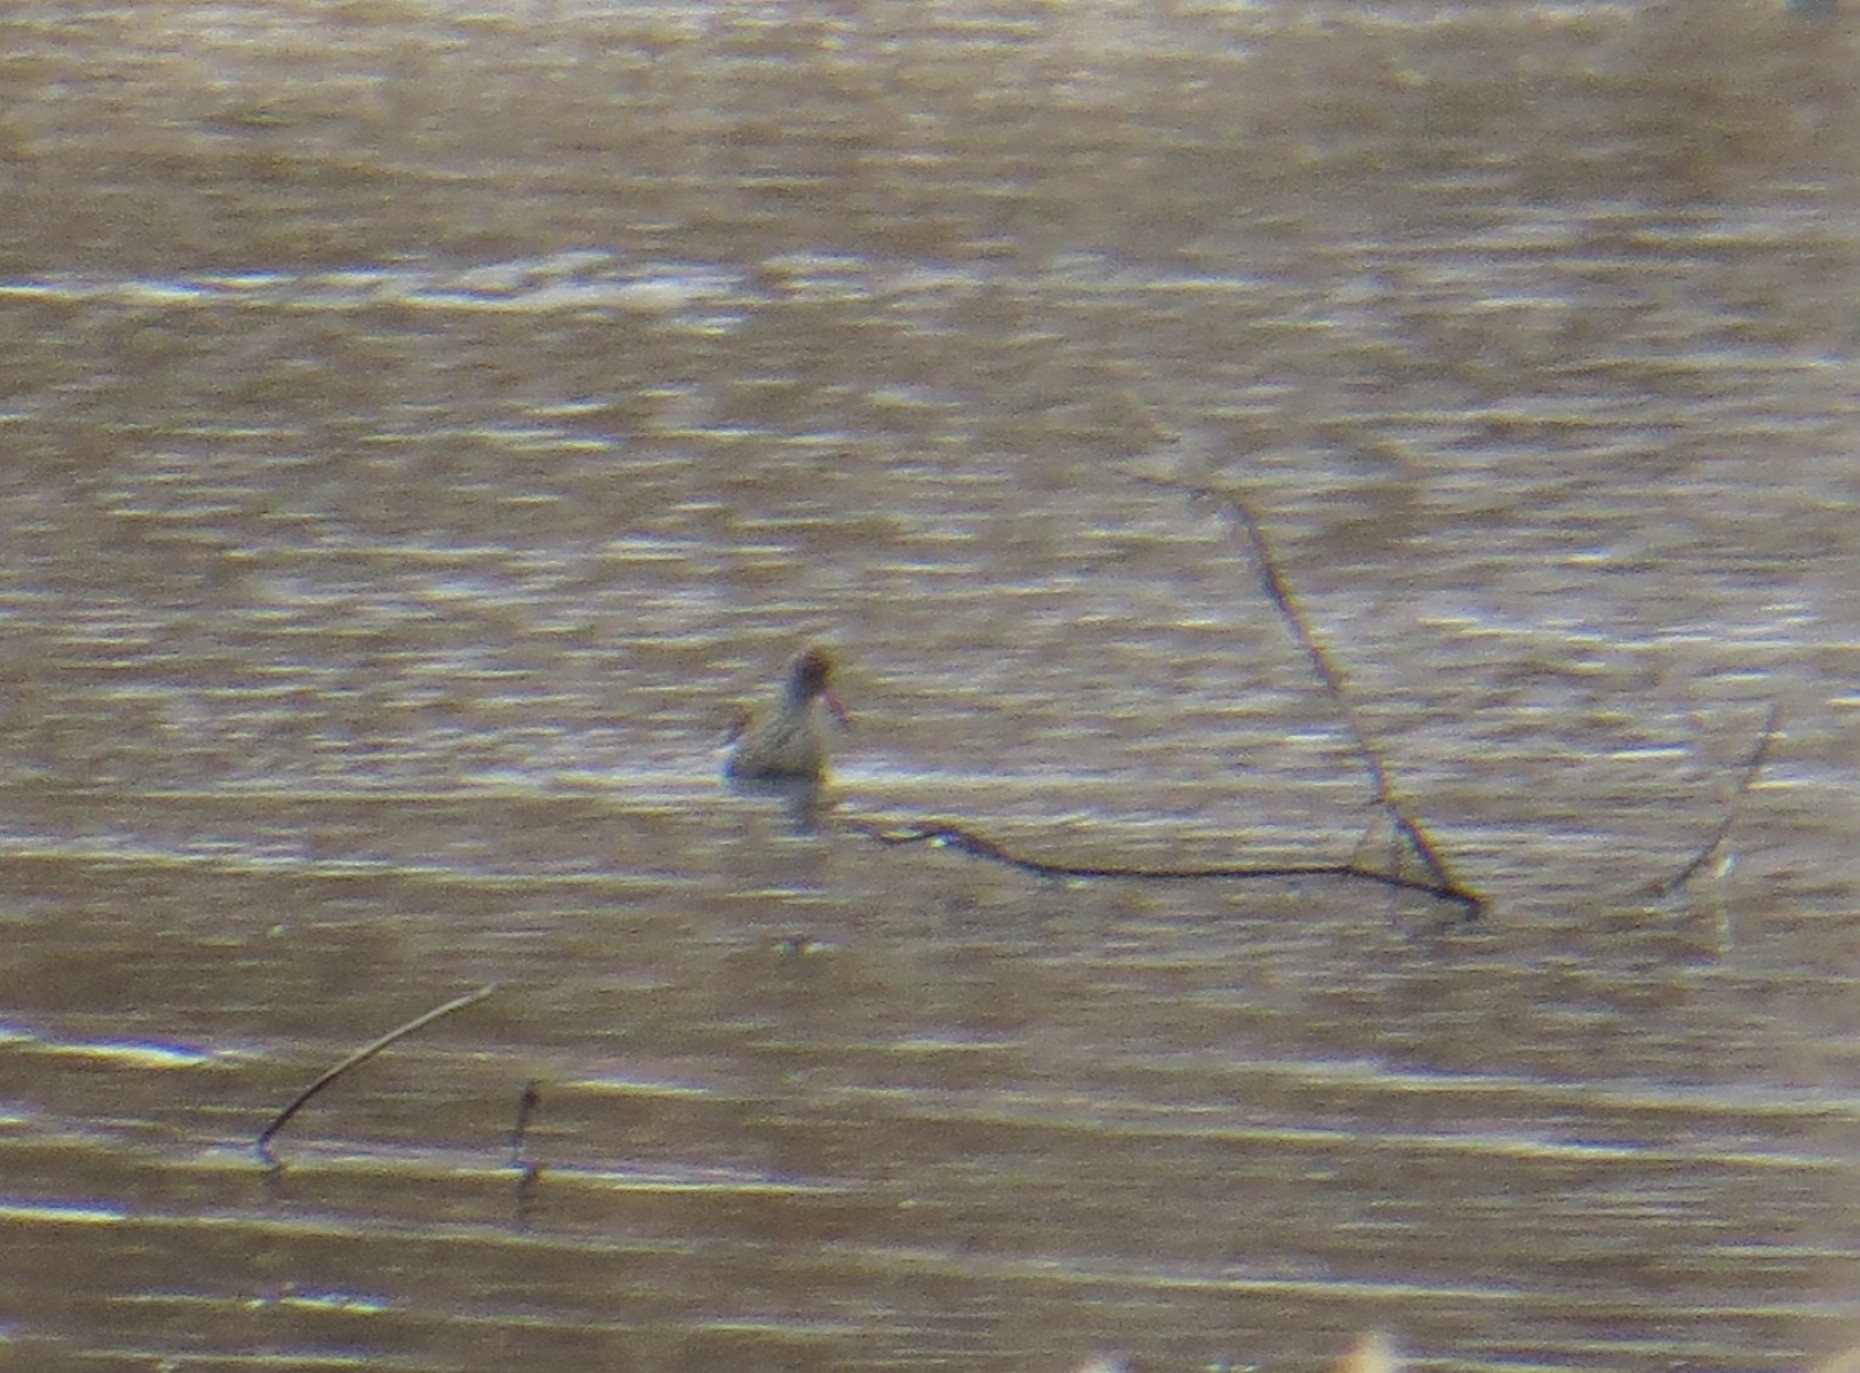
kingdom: Animalia
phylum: Chordata
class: Aves
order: Charadriiformes
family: Scolopacidae
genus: Tringa
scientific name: Tringa totanus
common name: Common redshank
